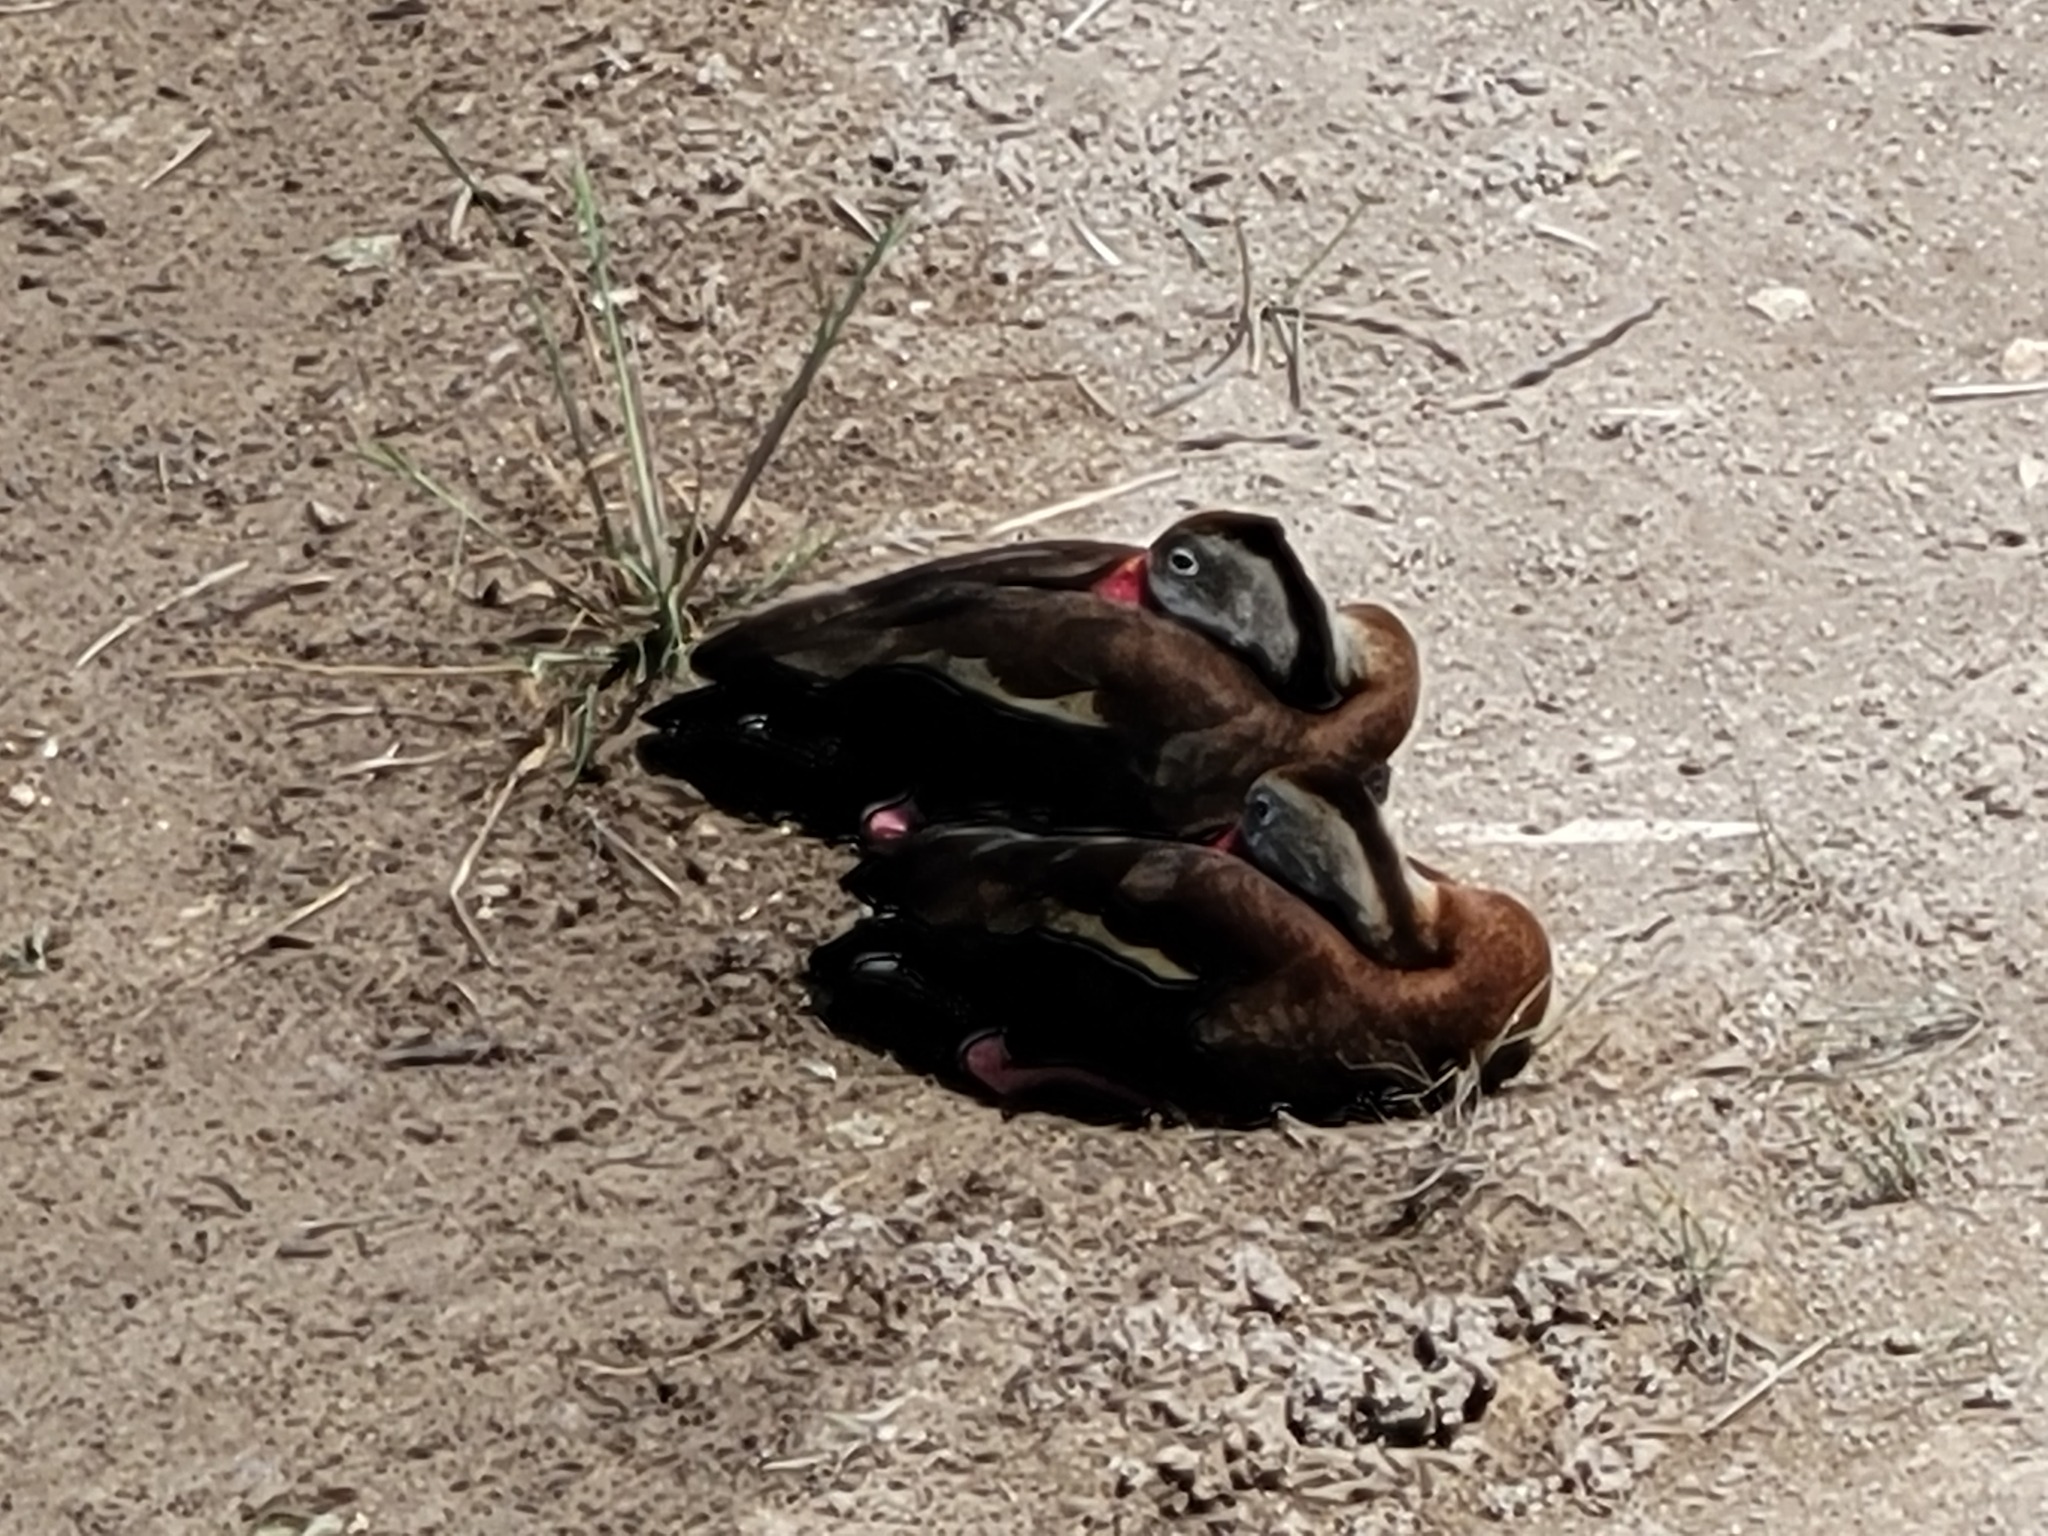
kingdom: Animalia
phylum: Chordata
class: Aves
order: Anseriformes
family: Anatidae
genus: Dendrocygna
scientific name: Dendrocygna autumnalis
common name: Black-bellied whistling duck
